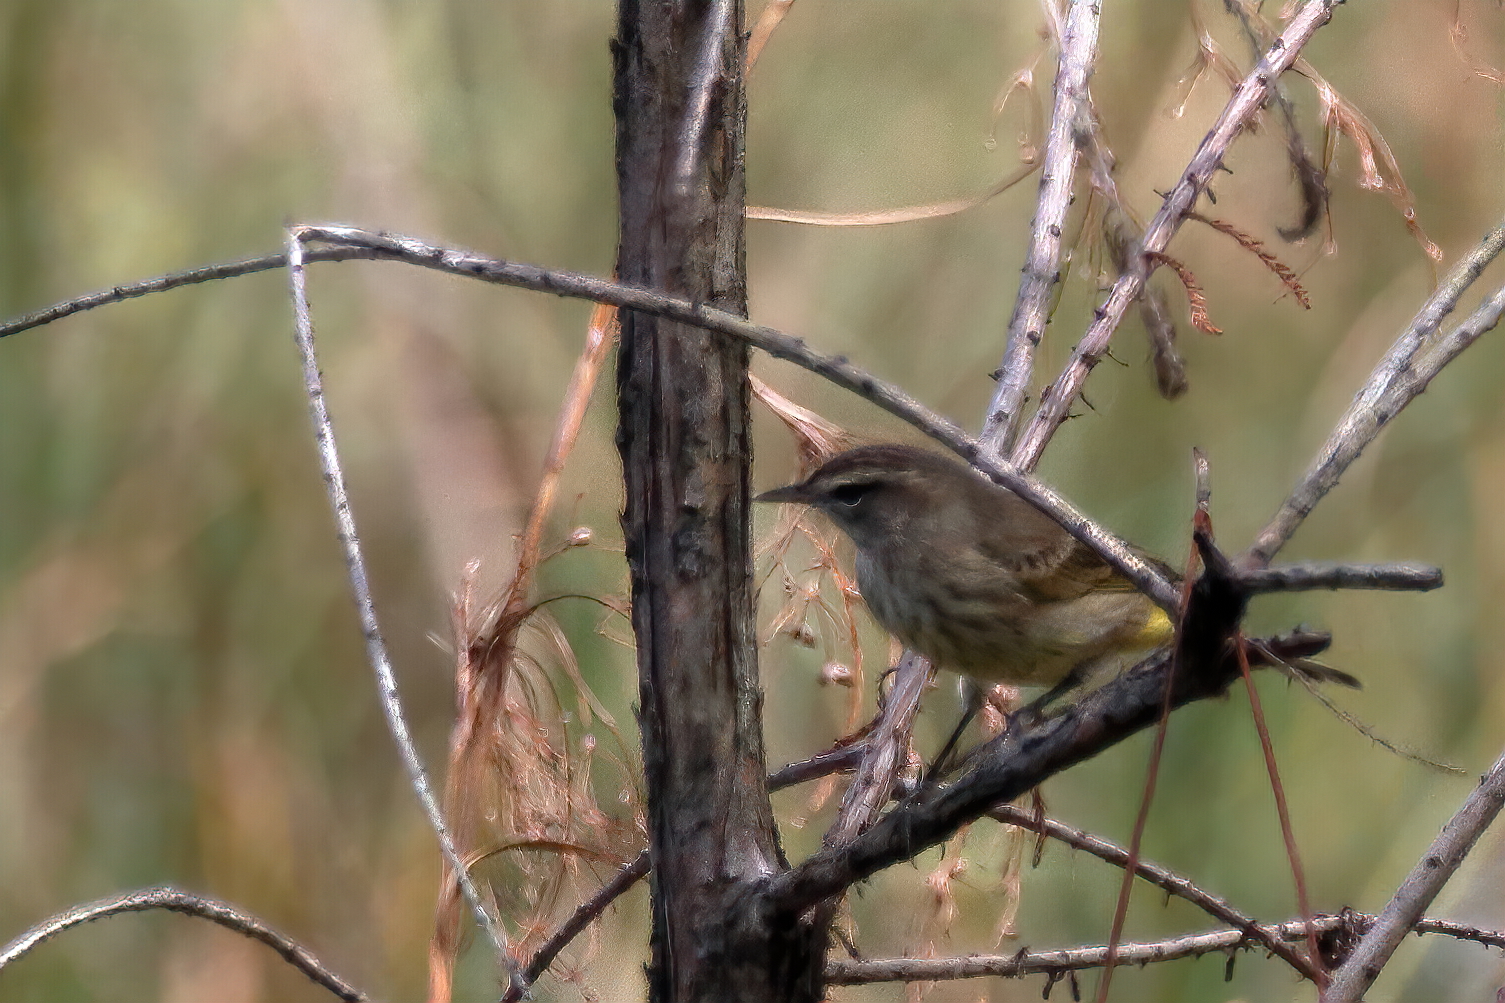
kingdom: Animalia
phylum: Chordata
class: Aves
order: Passeriformes
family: Parulidae
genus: Setophaga
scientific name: Setophaga palmarum
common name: Palm warbler
